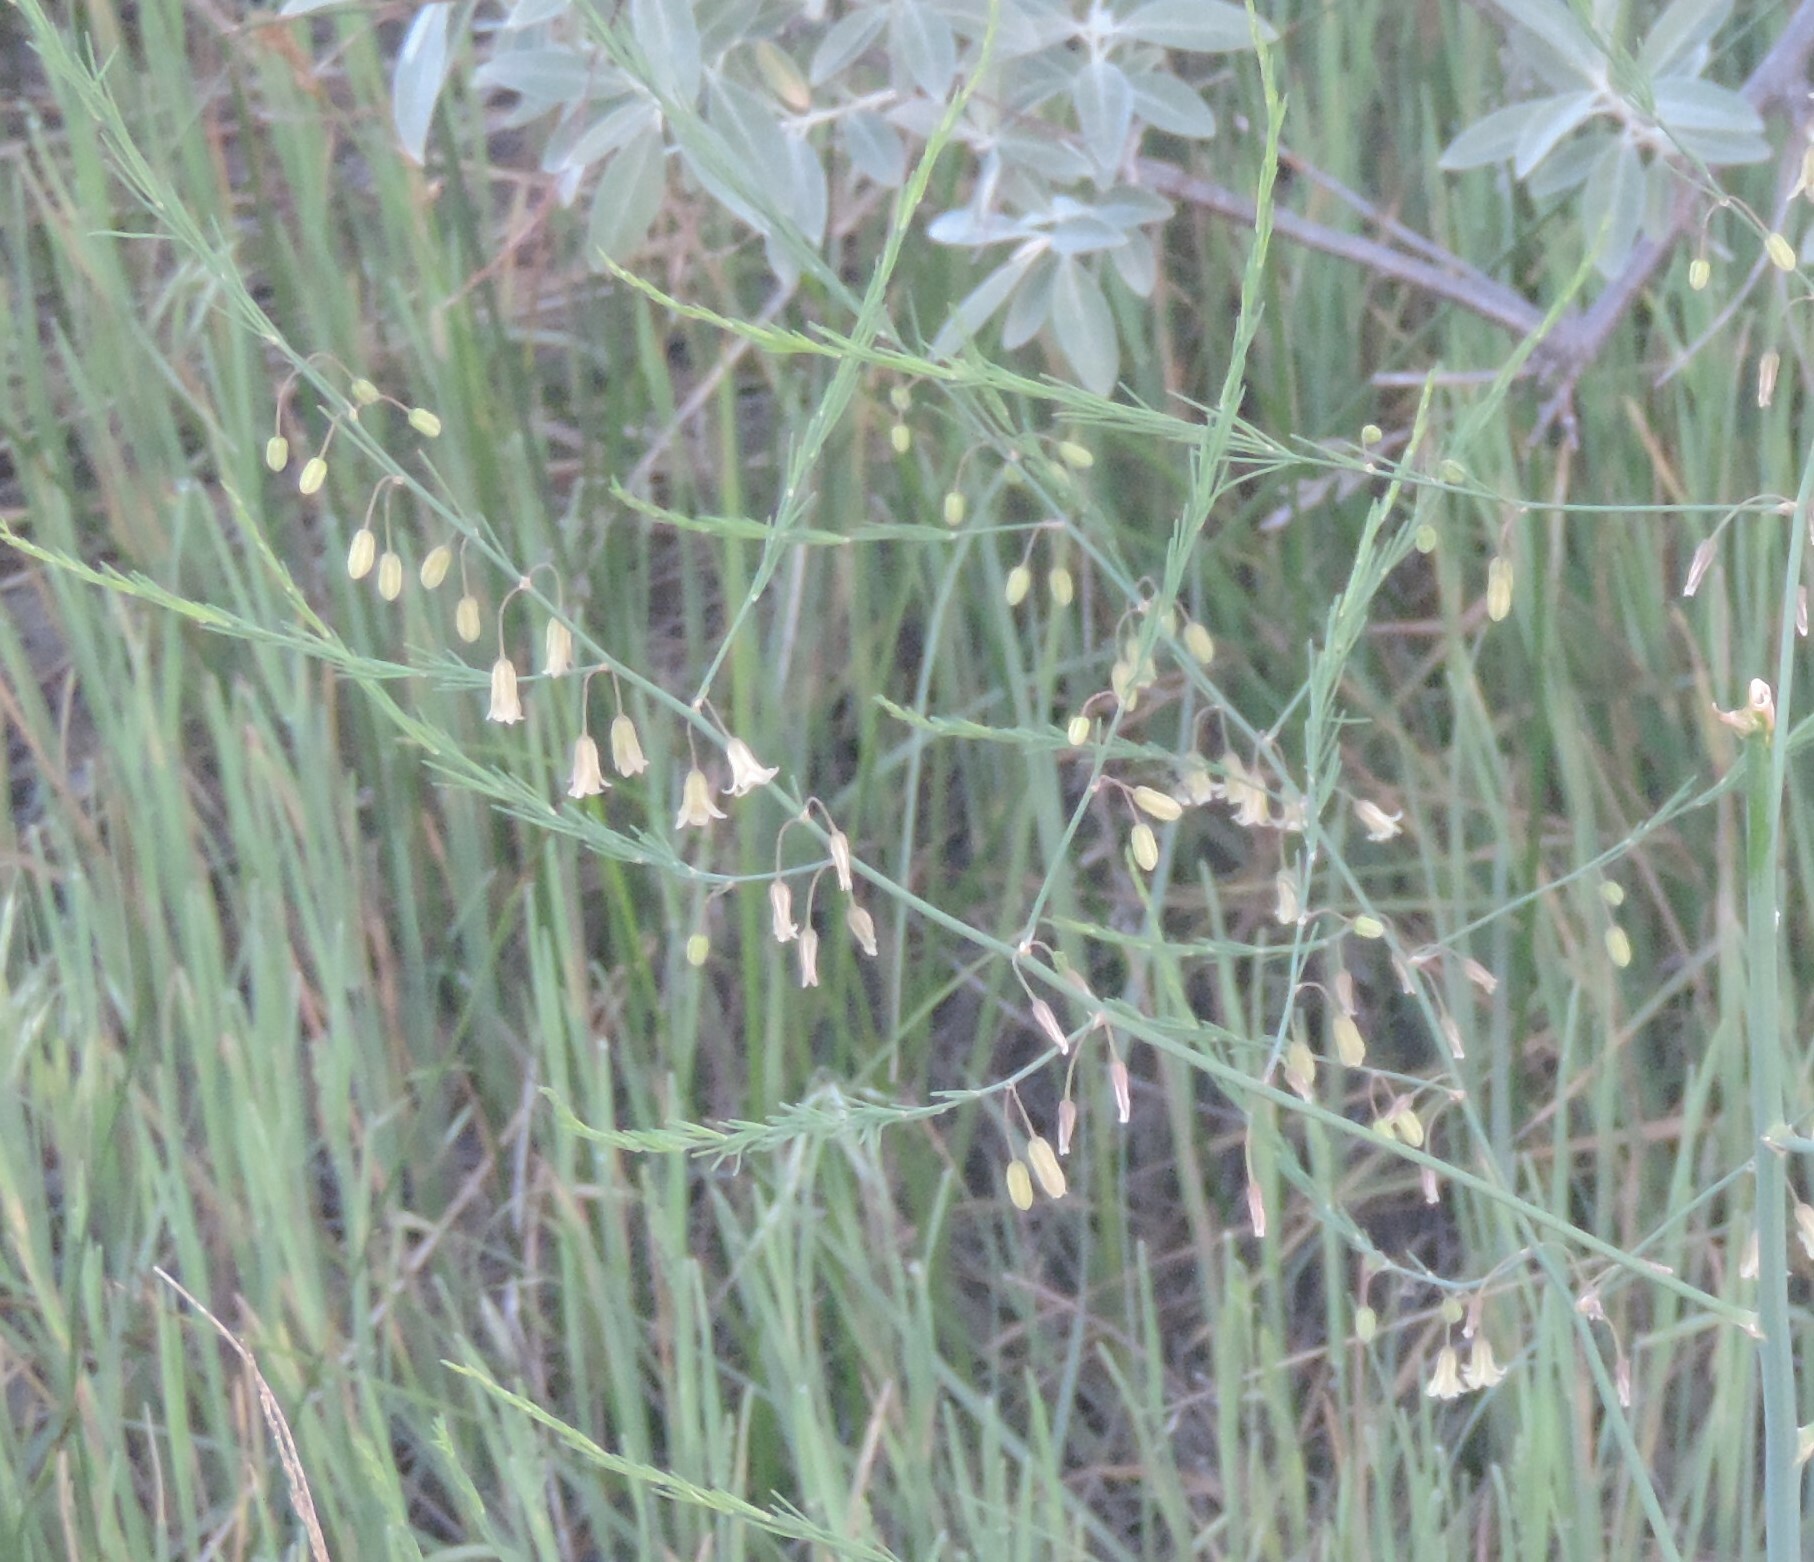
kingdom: Plantae
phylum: Tracheophyta
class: Liliopsida
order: Asparagales
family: Asparagaceae
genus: Asparagus
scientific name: Asparagus officinalis
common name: Garden asparagus
